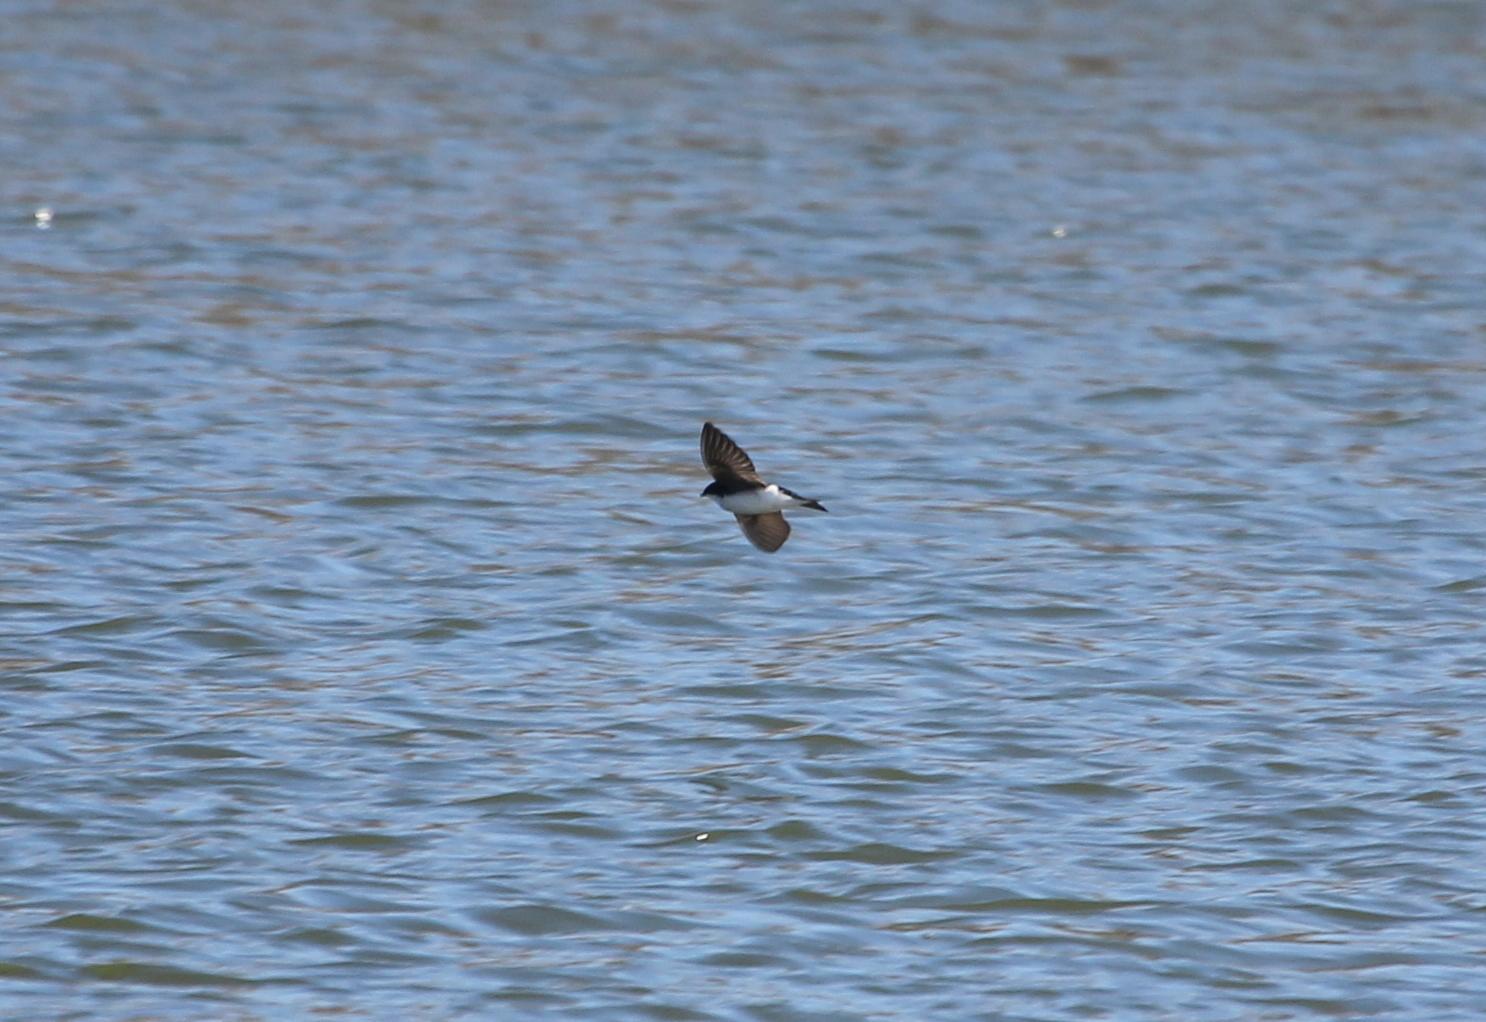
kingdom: Animalia
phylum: Chordata
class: Aves
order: Passeriformes
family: Hirundinidae
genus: Tachycineta
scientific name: Tachycineta bicolor
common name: Tree swallow
